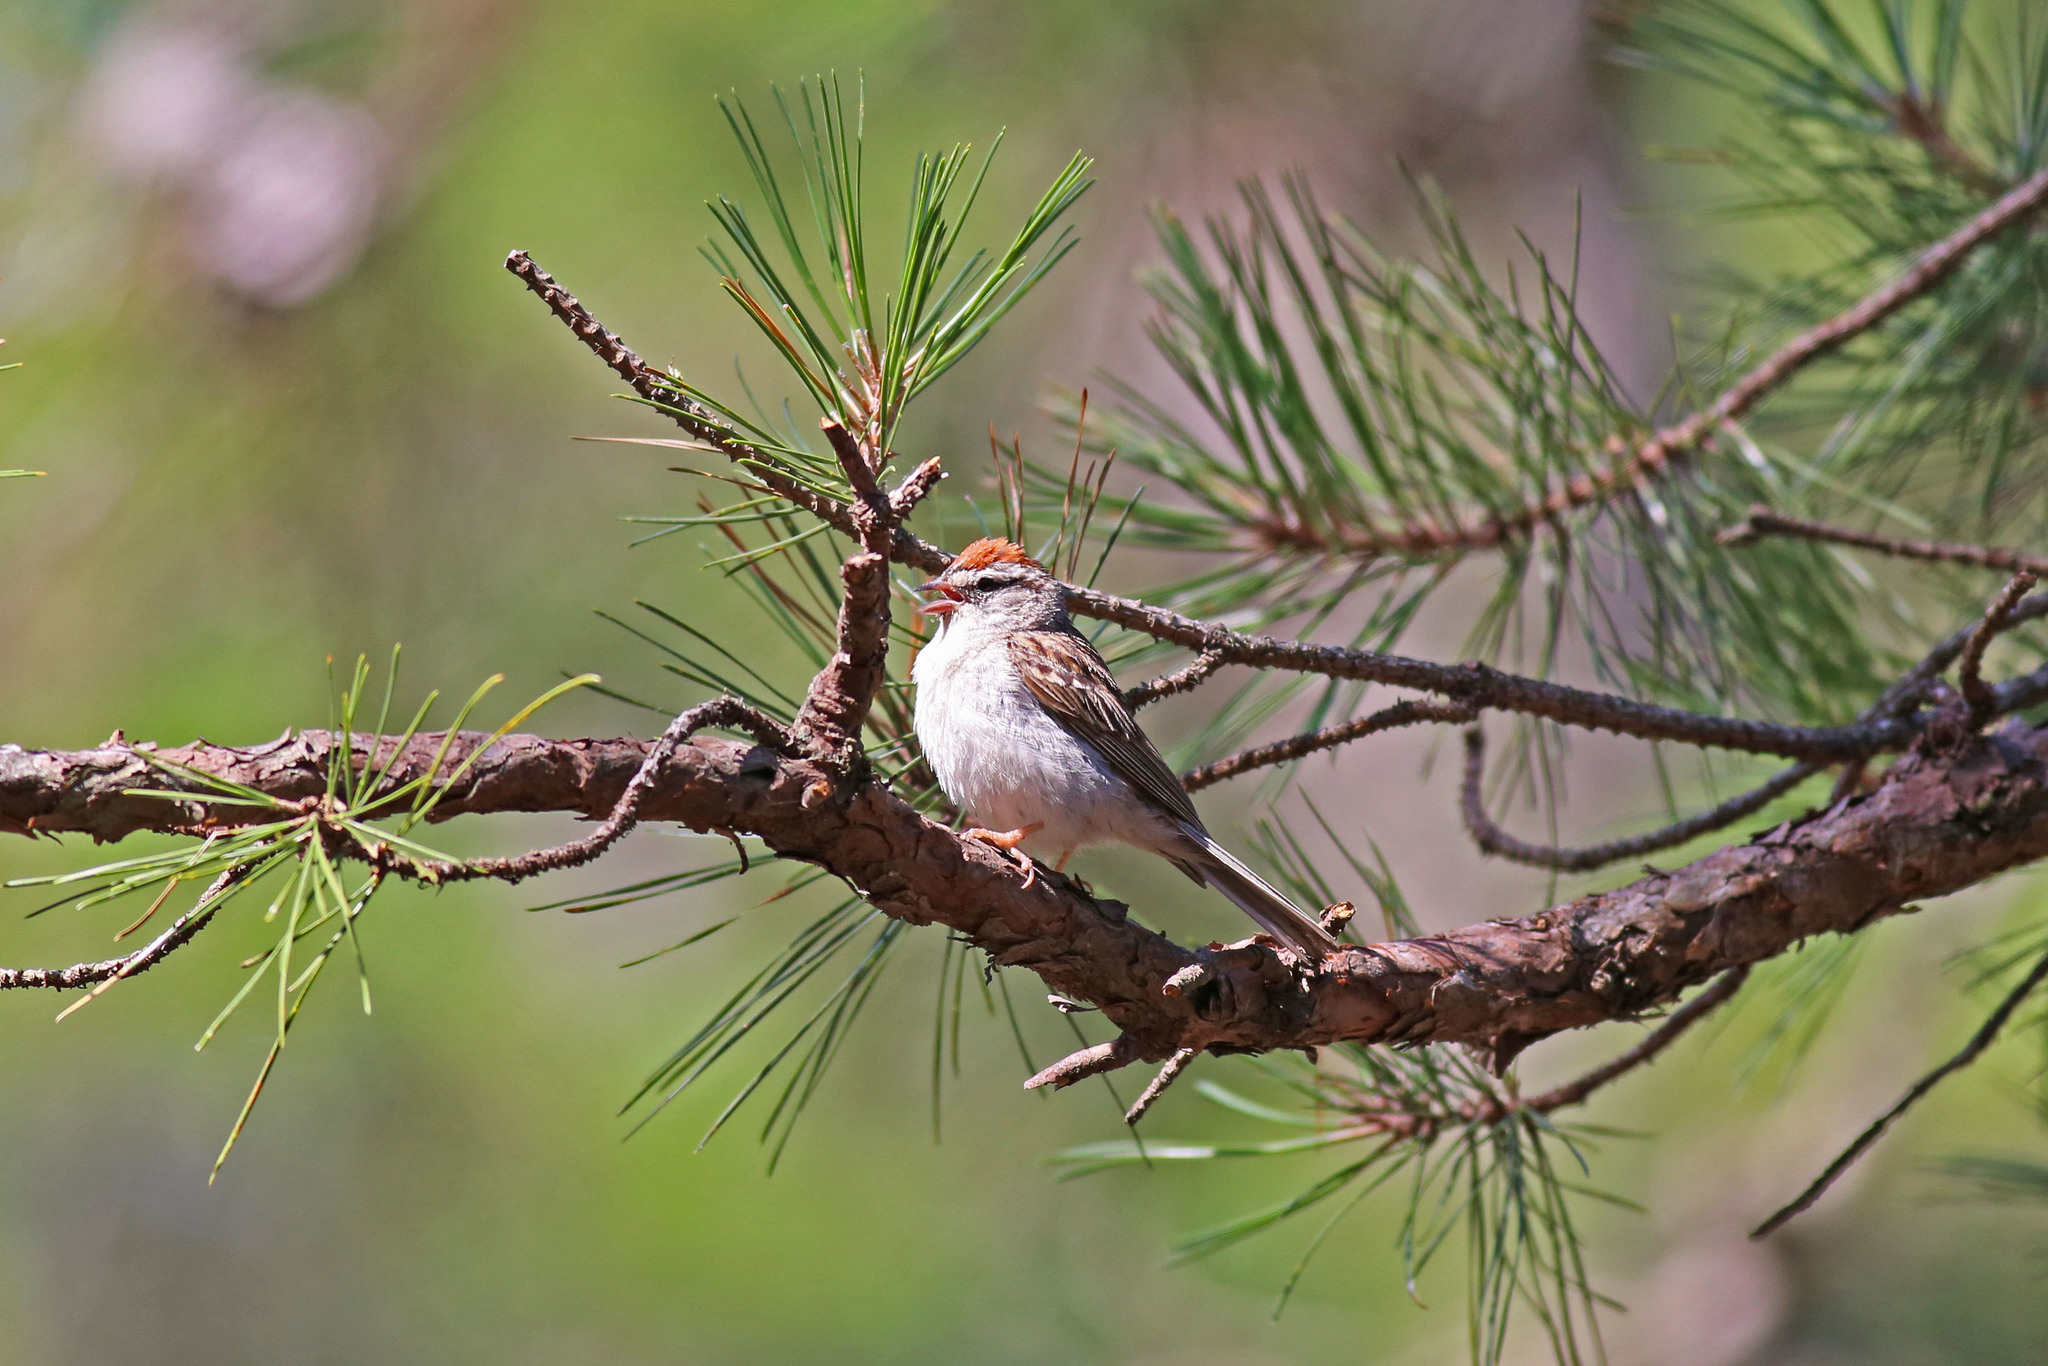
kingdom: Animalia
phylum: Chordata
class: Aves
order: Passeriformes
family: Passerellidae
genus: Spizella
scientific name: Spizella passerina
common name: Chipping sparrow
